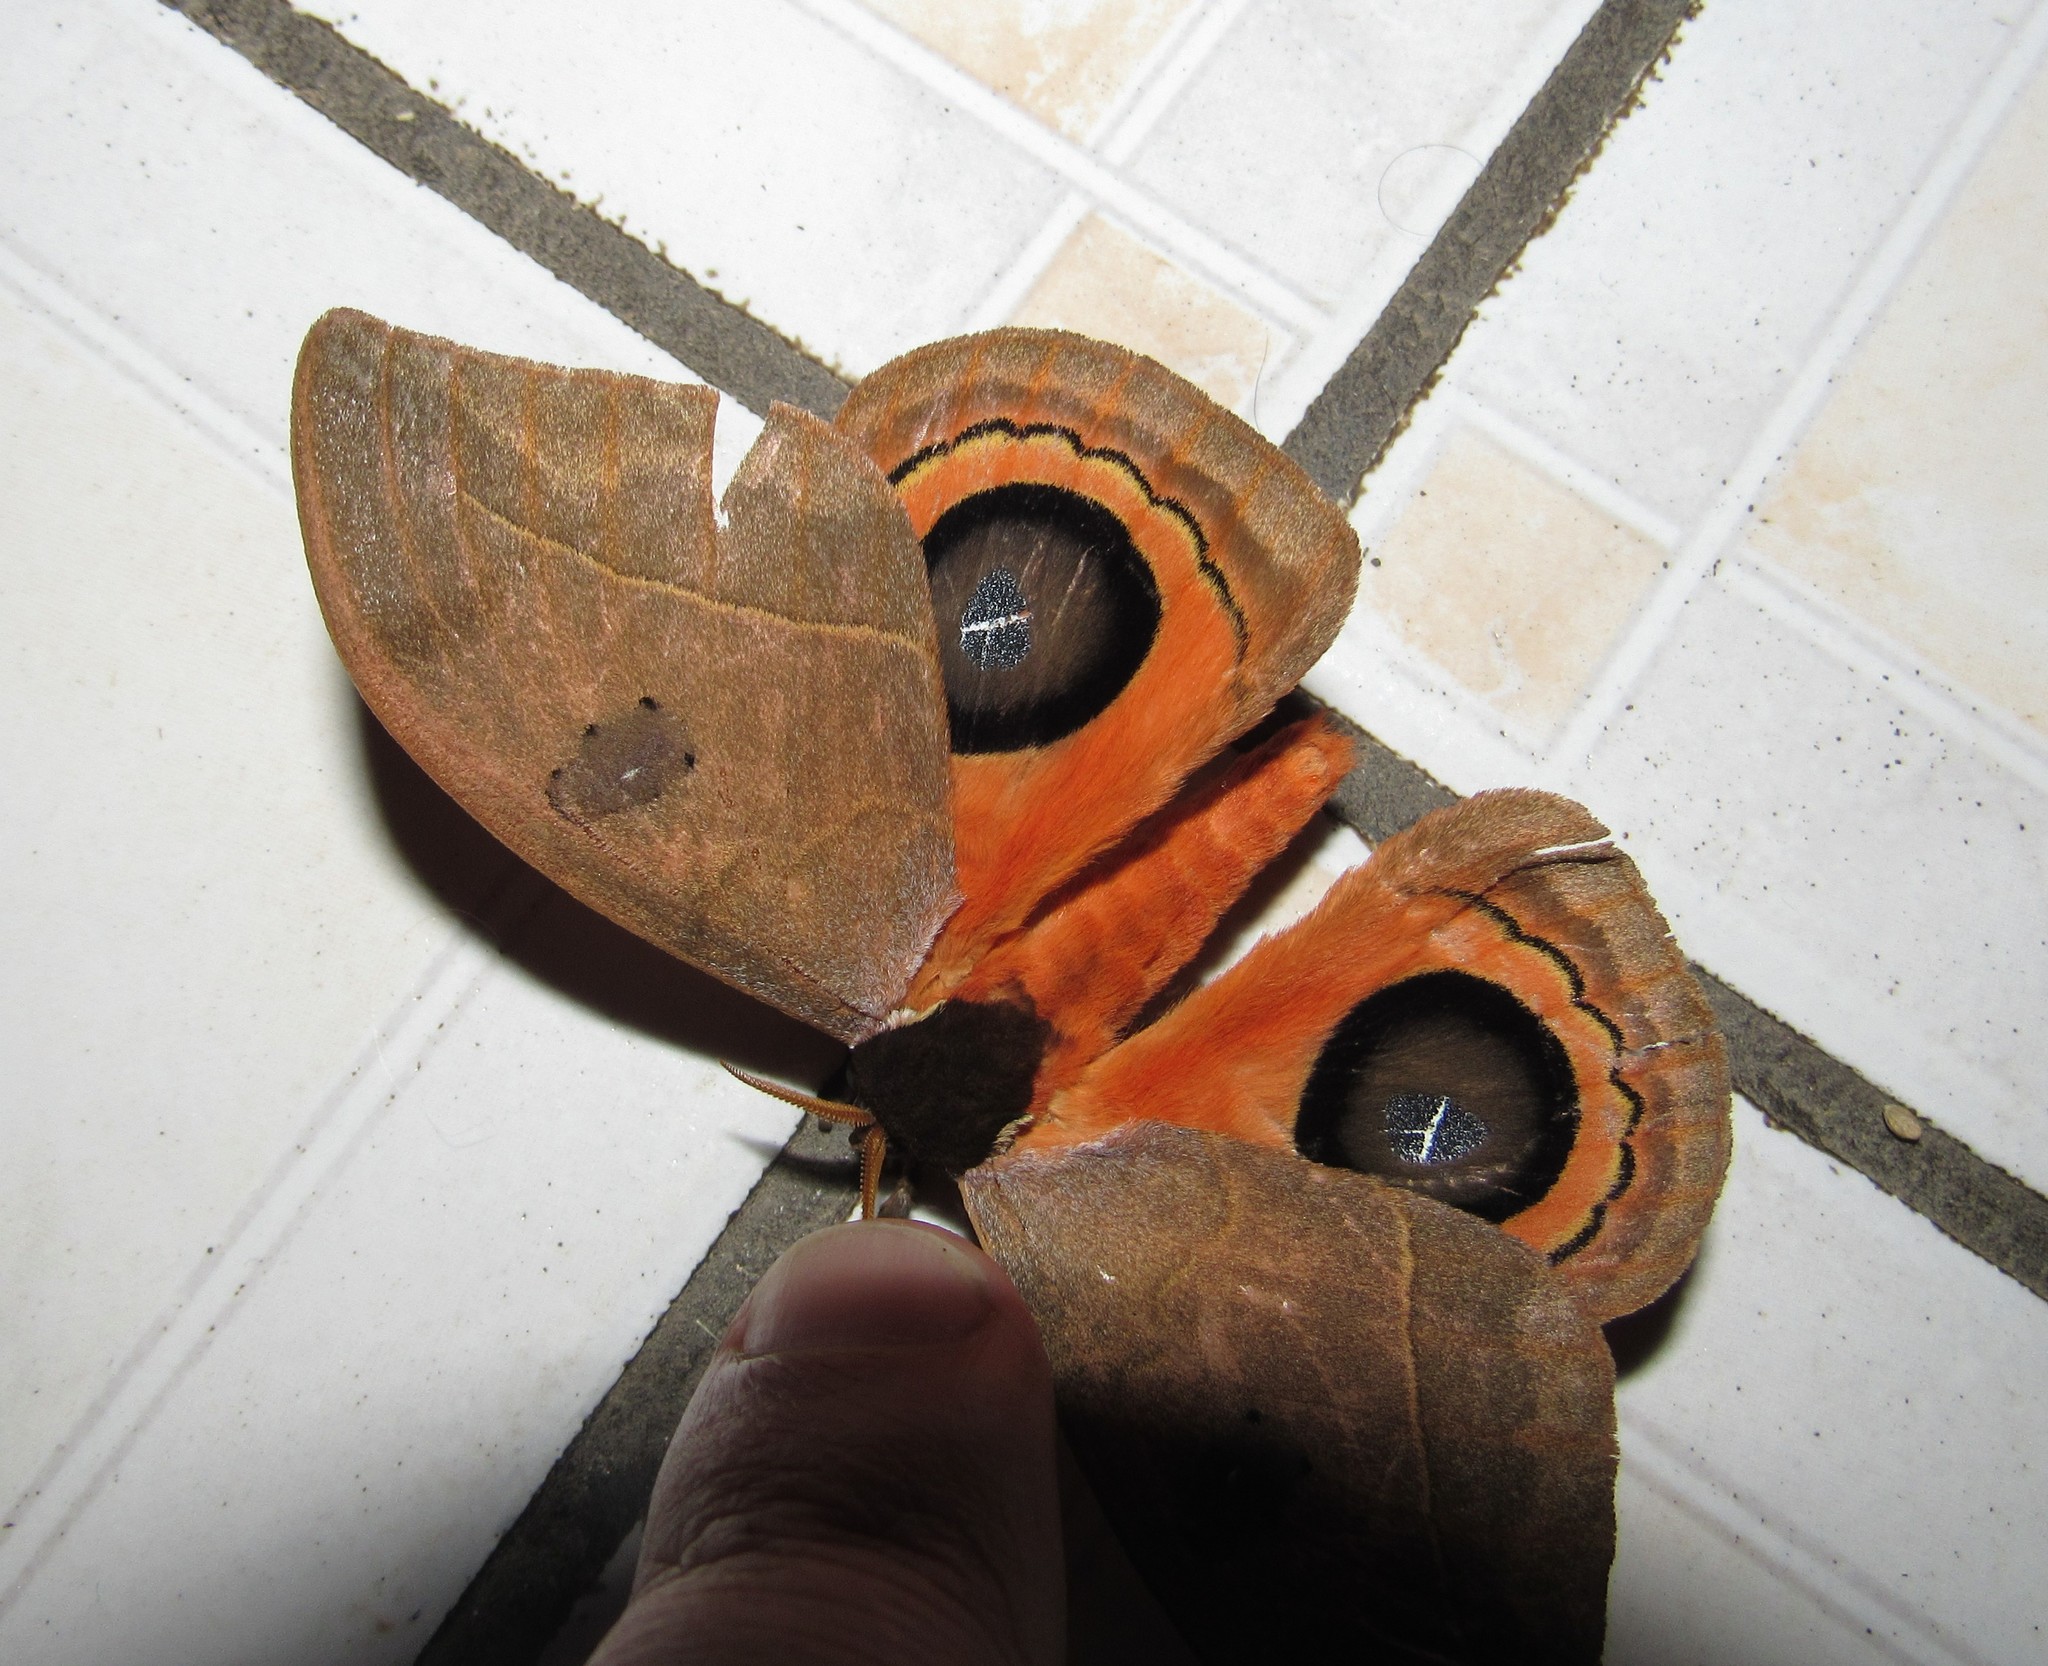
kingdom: Animalia
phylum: Arthropoda
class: Insecta
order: Lepidoptera
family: Saturniidae
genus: Automeris
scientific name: Automeris illustris
